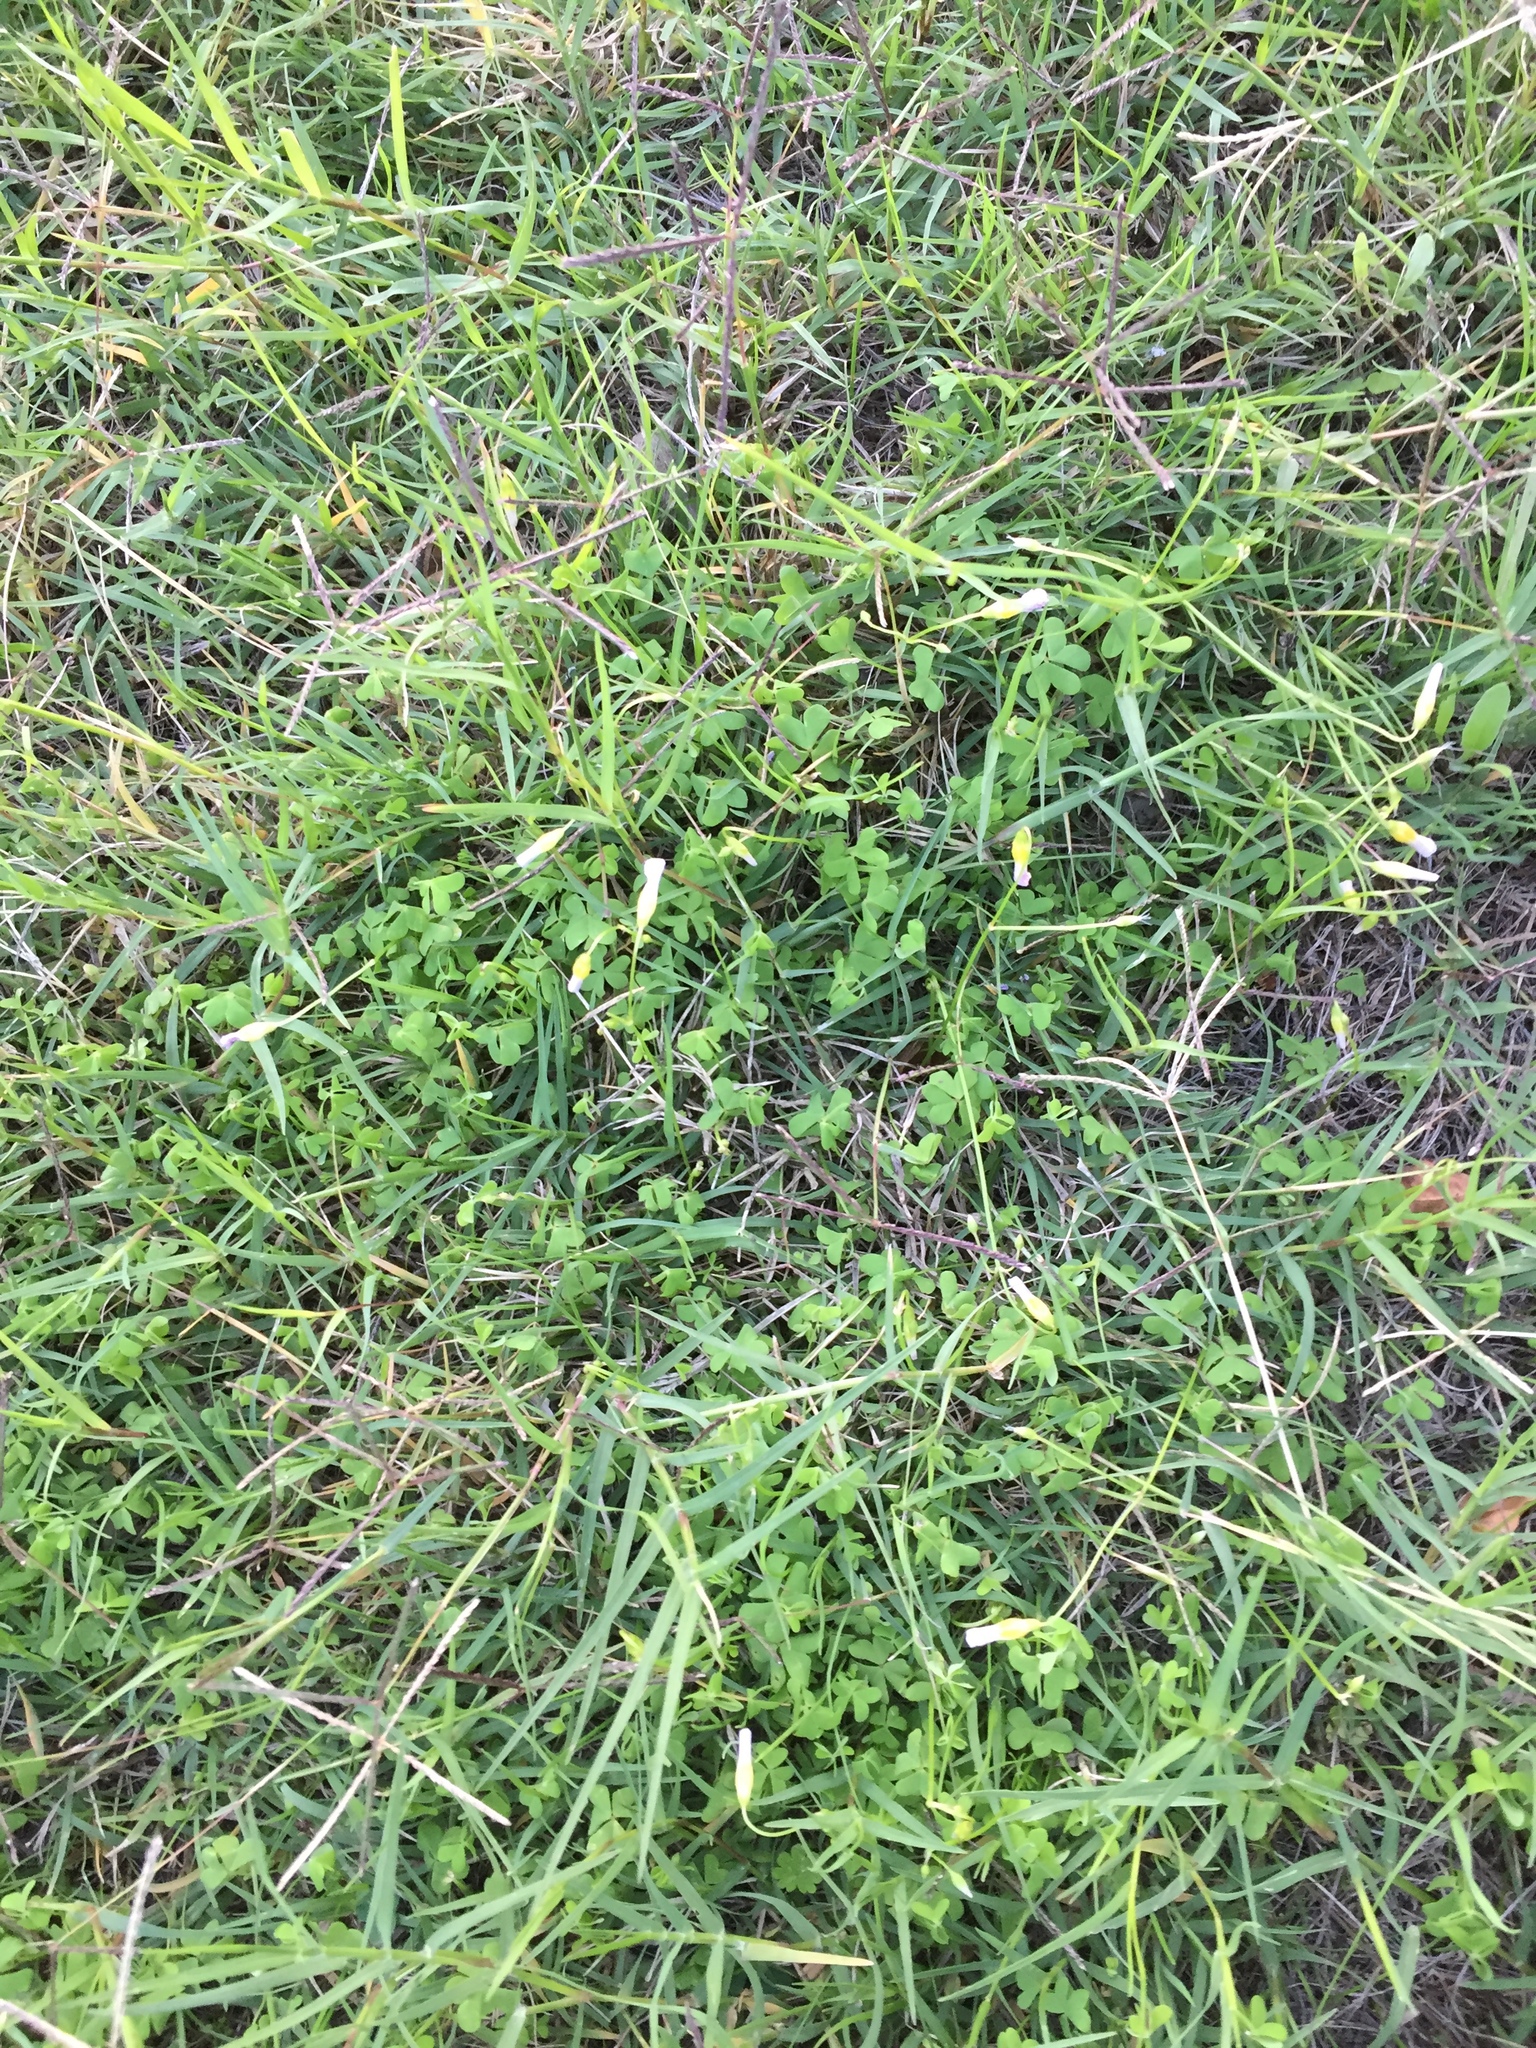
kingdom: Plantae
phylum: Tracheophyta
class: Magnoliopsida
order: Oxalidales
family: Oxalidaceae
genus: Oxalis
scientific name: Oxalis caprina
